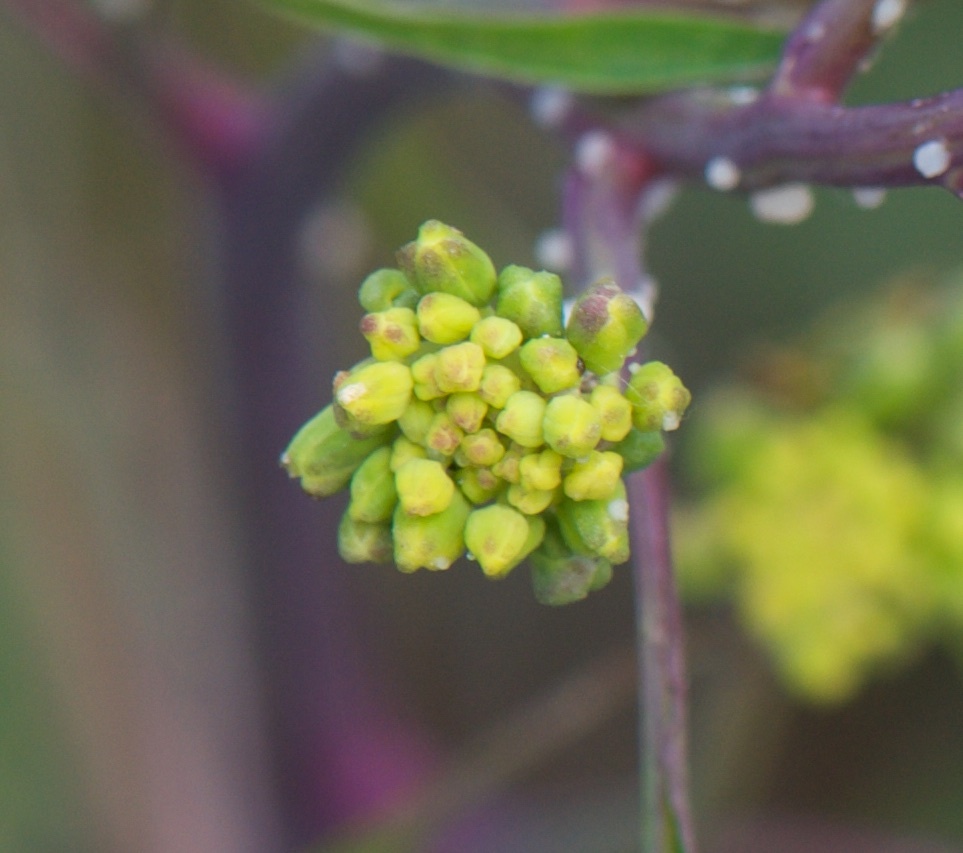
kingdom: Plantae
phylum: Tracheophyta
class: Magnoliopsida
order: Asterales
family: Asteraceae
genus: Delairea
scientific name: Delairea odorata
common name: Cape-ivy
